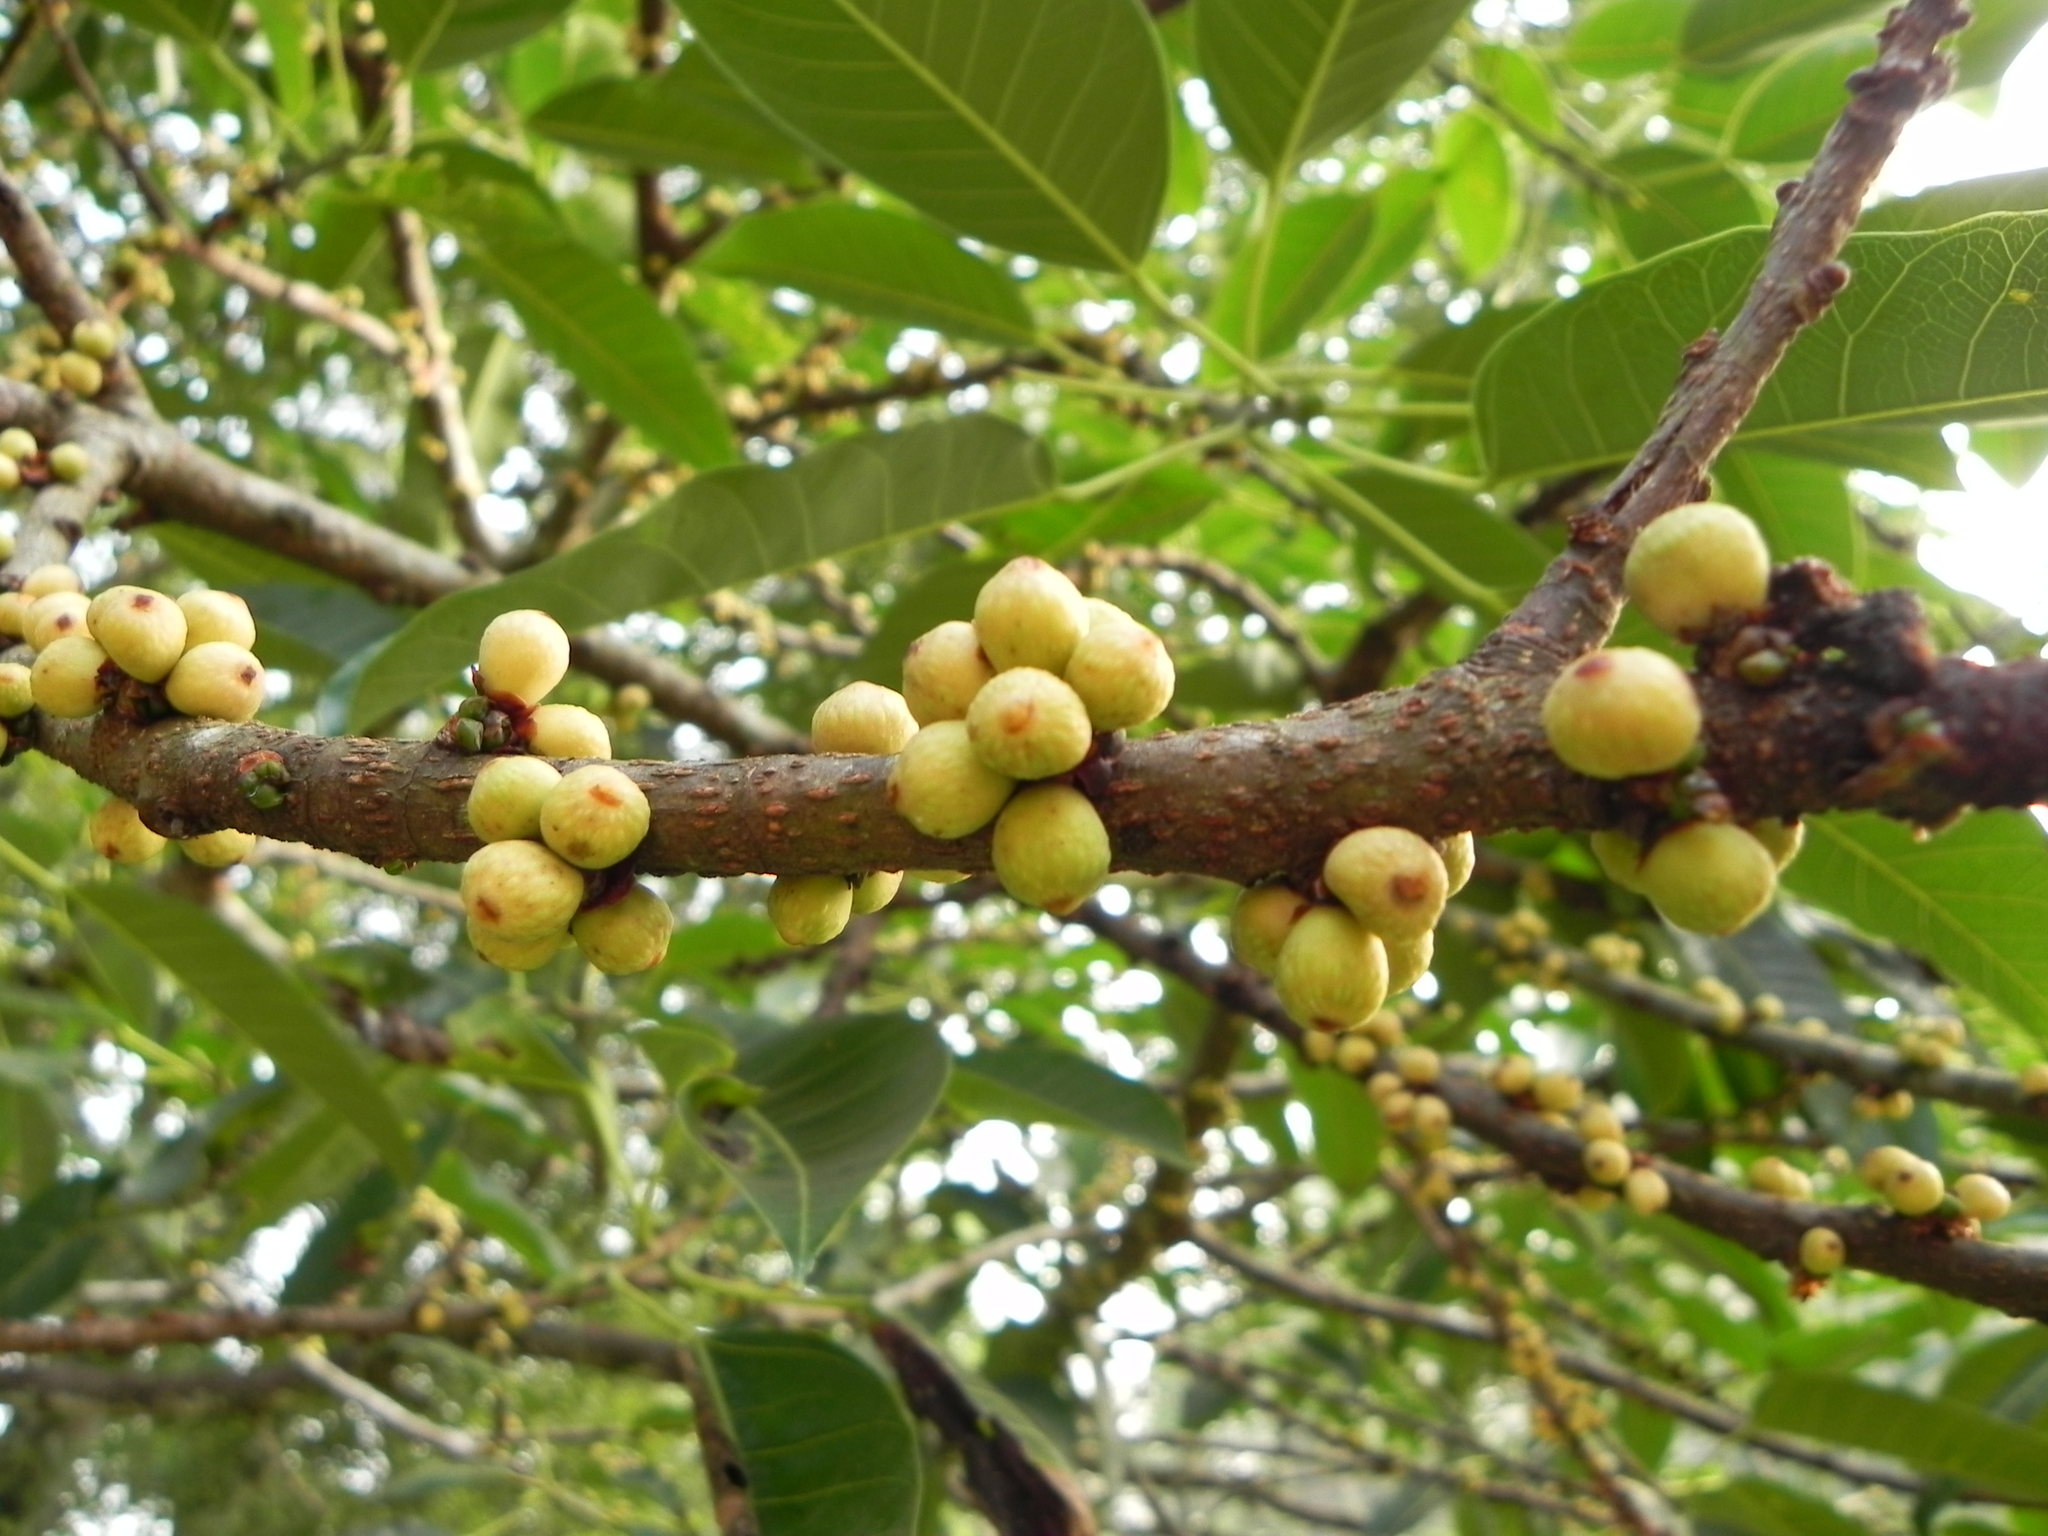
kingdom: Plantae
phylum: Tracheophyta
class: Magnoliopsida
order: Rosales
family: Moraceae
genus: Ficus
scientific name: Ficus tsjakela
